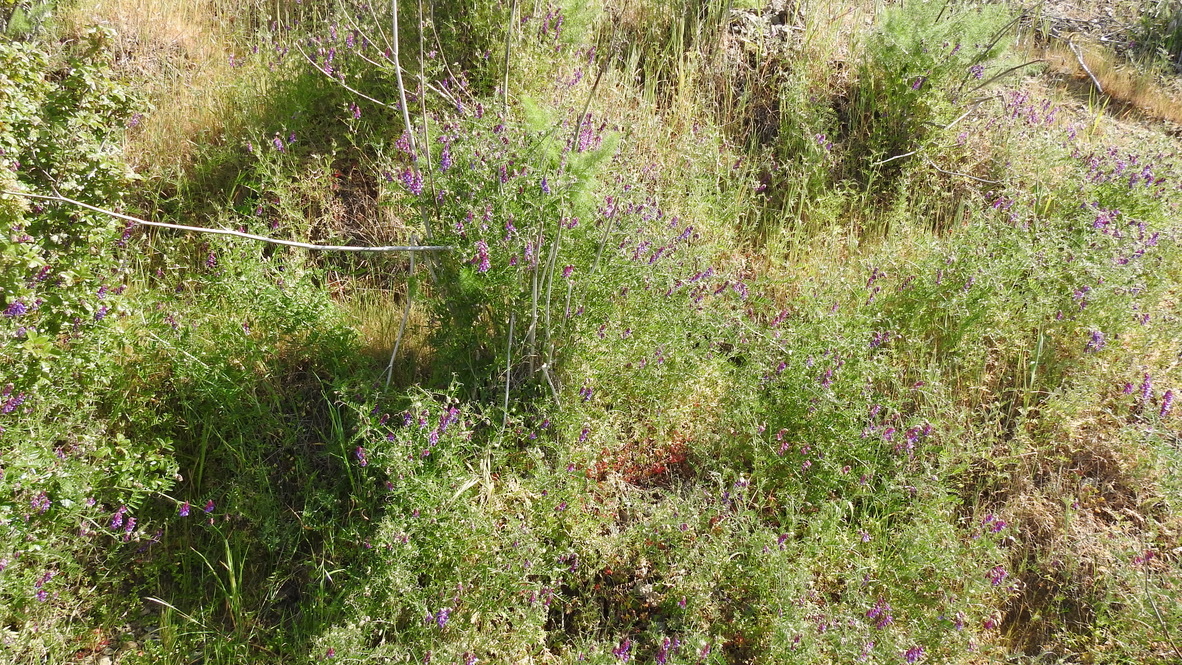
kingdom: Plantae
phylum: Tracheophyta
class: Magnoliopsida
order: Fabales
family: Fabaceae
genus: Vicia
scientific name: Vicia villosa
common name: Fodder vetch
